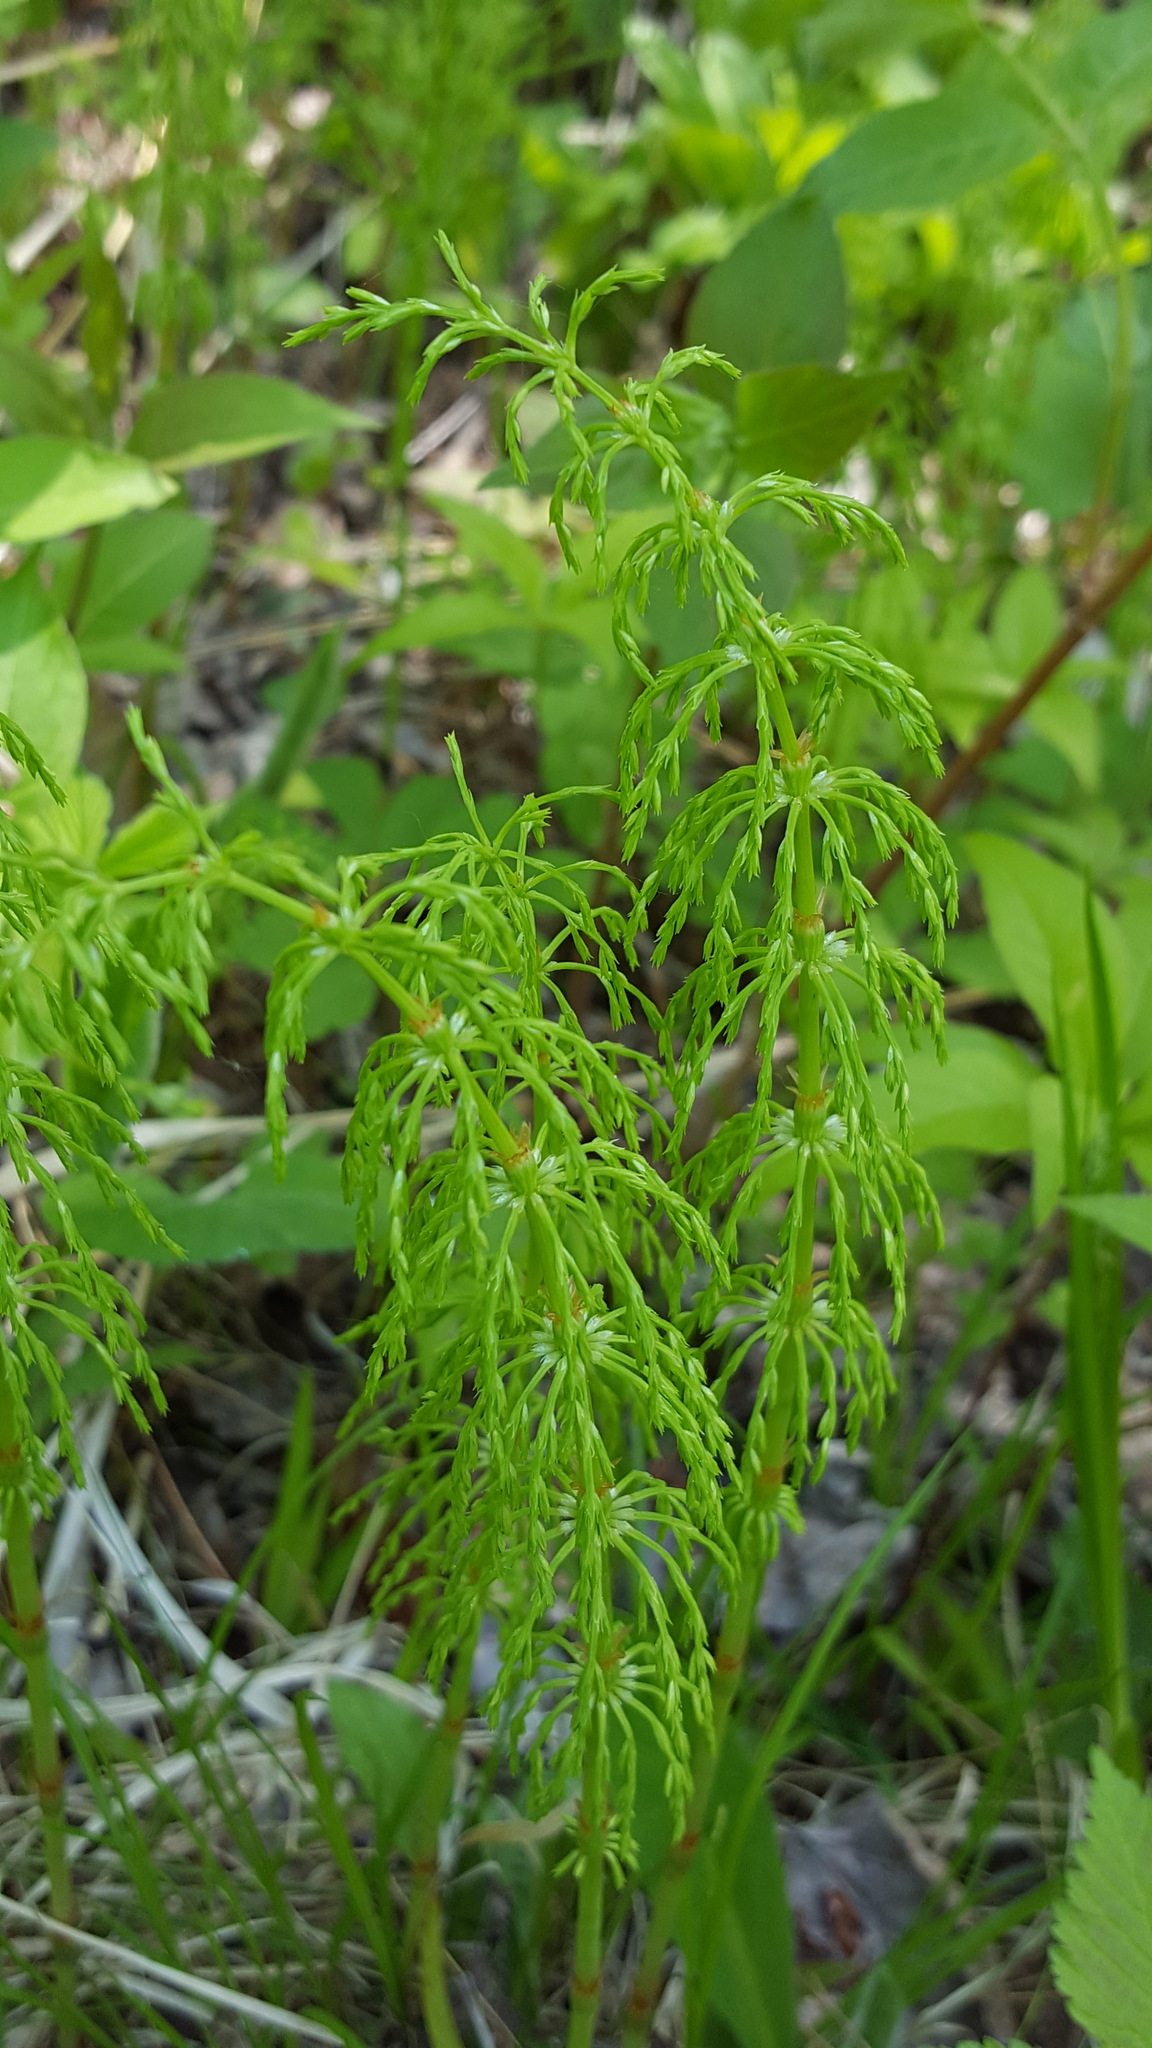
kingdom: Plantae
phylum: Tracheophyta
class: Polypodiopsida
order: Equisetales
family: Equisetaceae
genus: Equisetum
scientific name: Equisetum sylvaticum
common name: Wood horsetail
